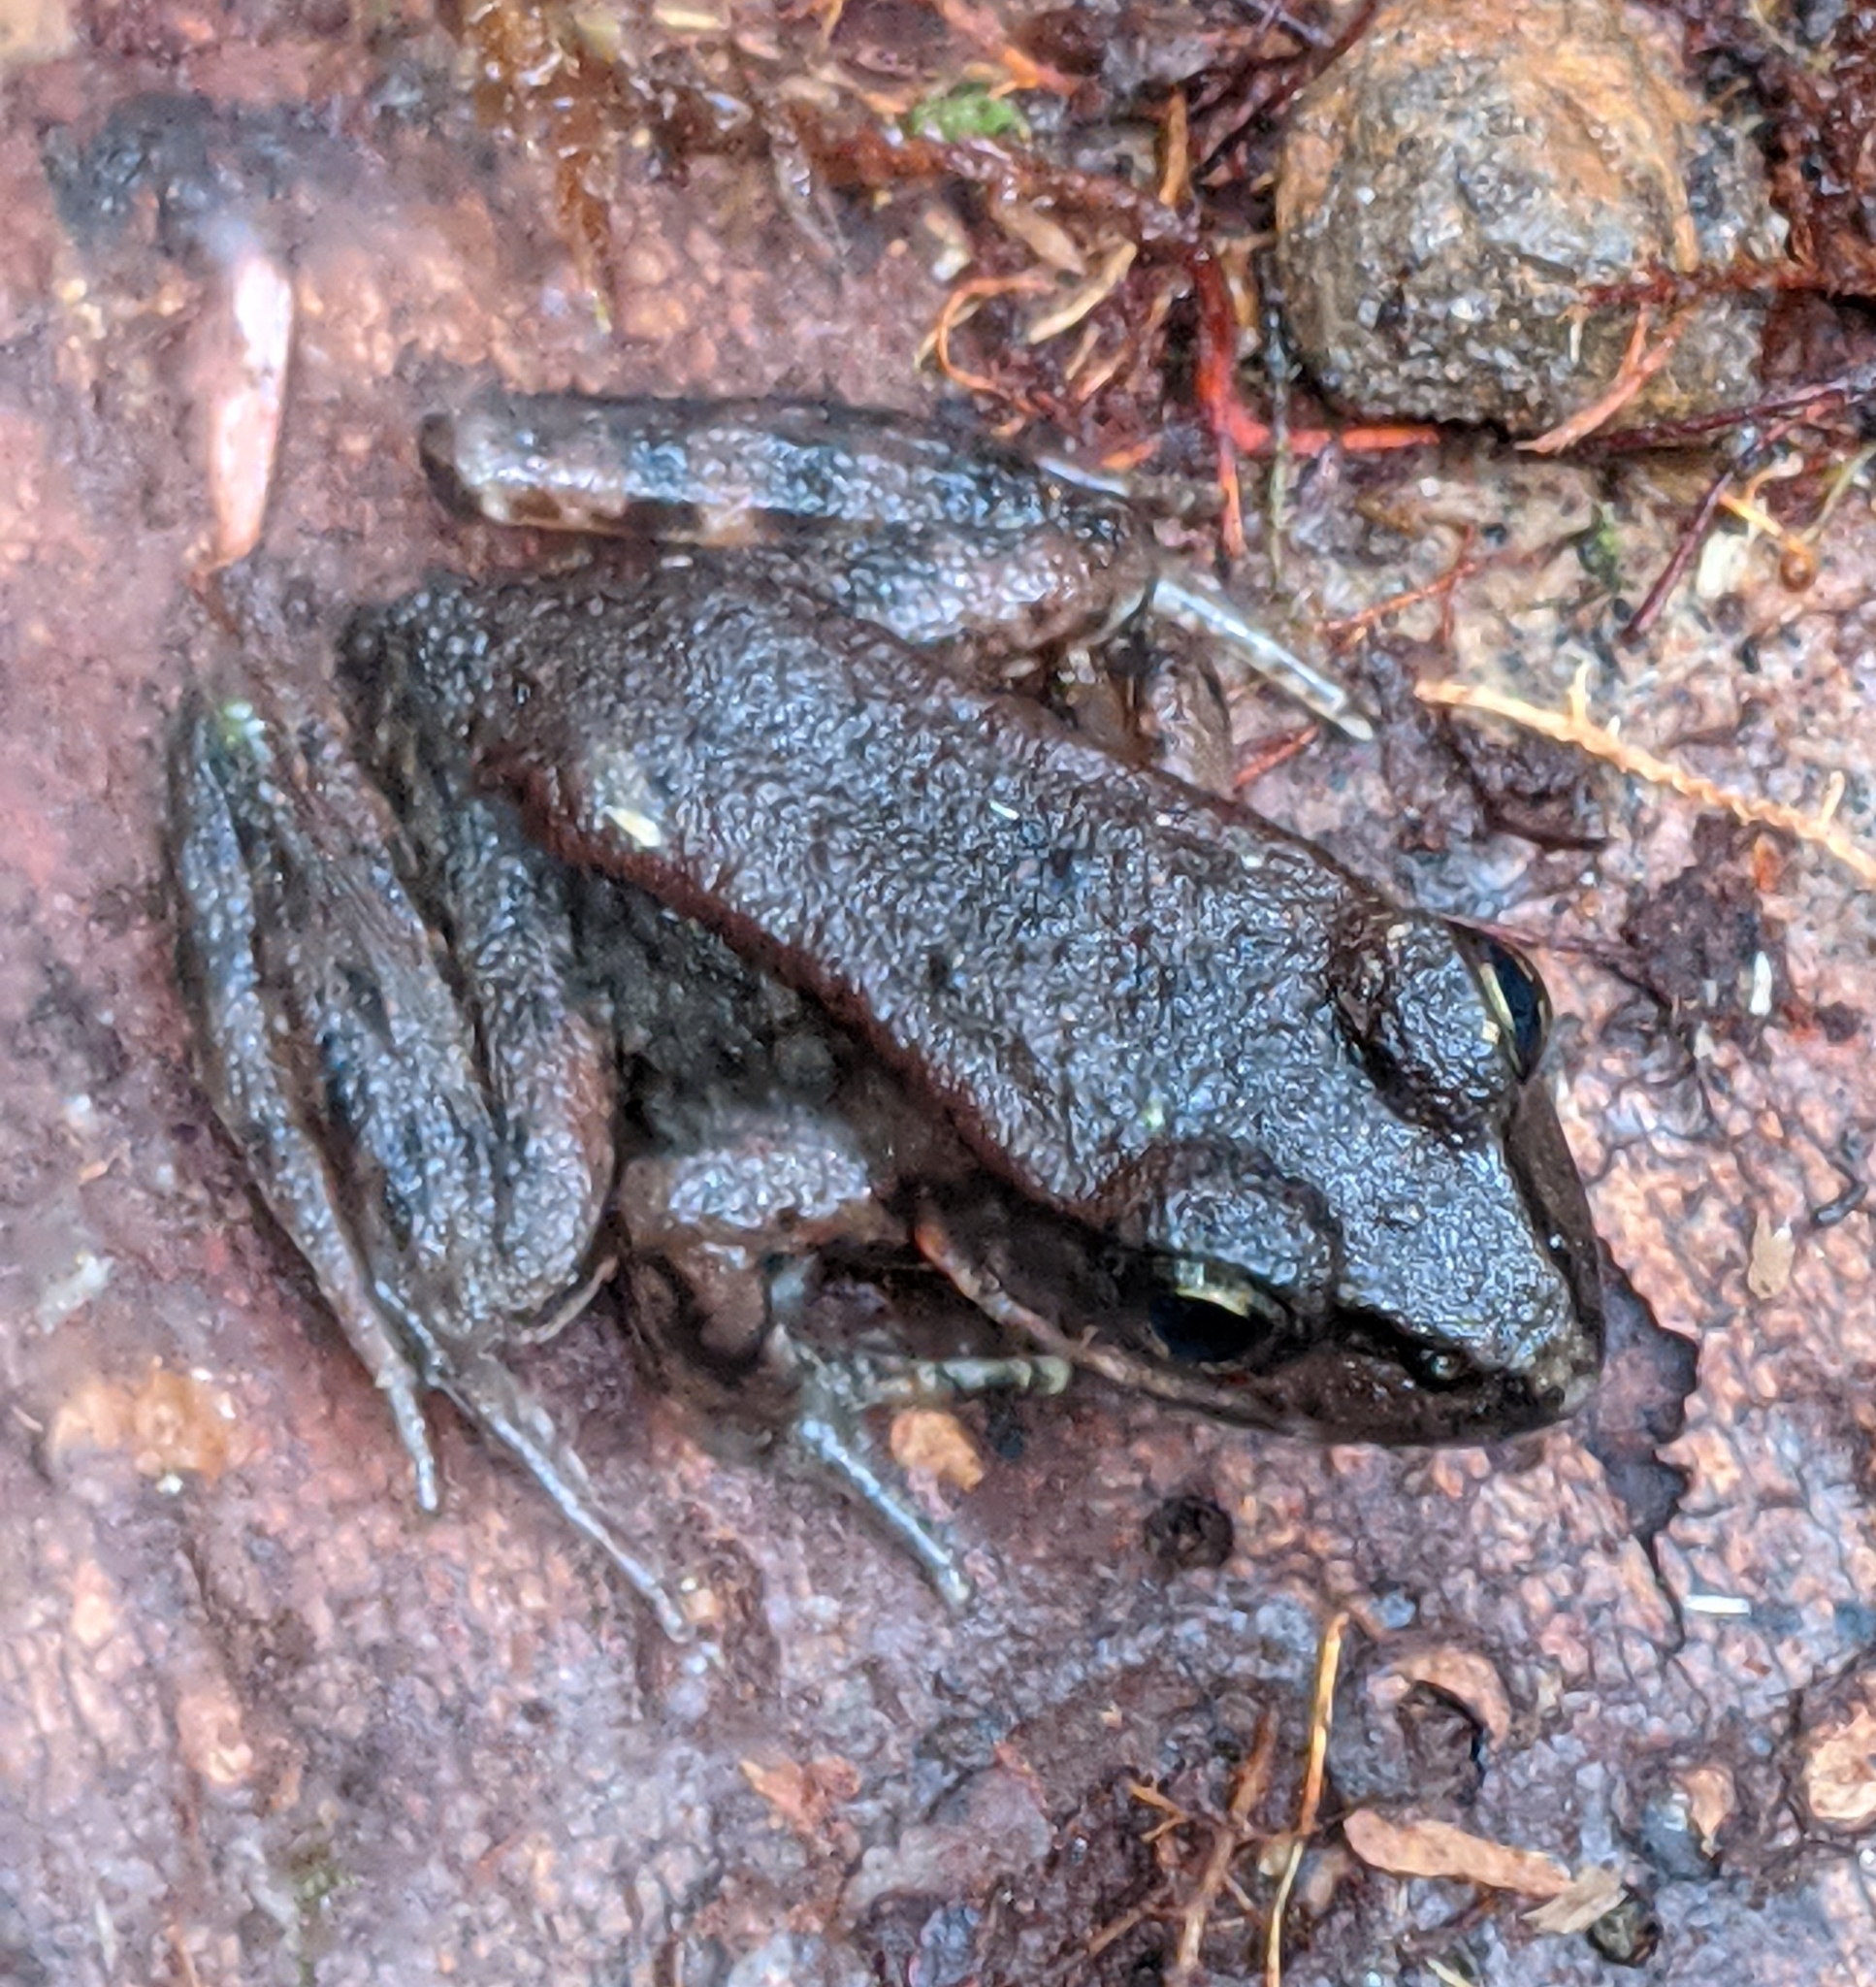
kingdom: Animalia
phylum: Chordata
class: Amphibia
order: Anura
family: Ranidae
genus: Rana
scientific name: Rana aurora
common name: Red-legged frog
